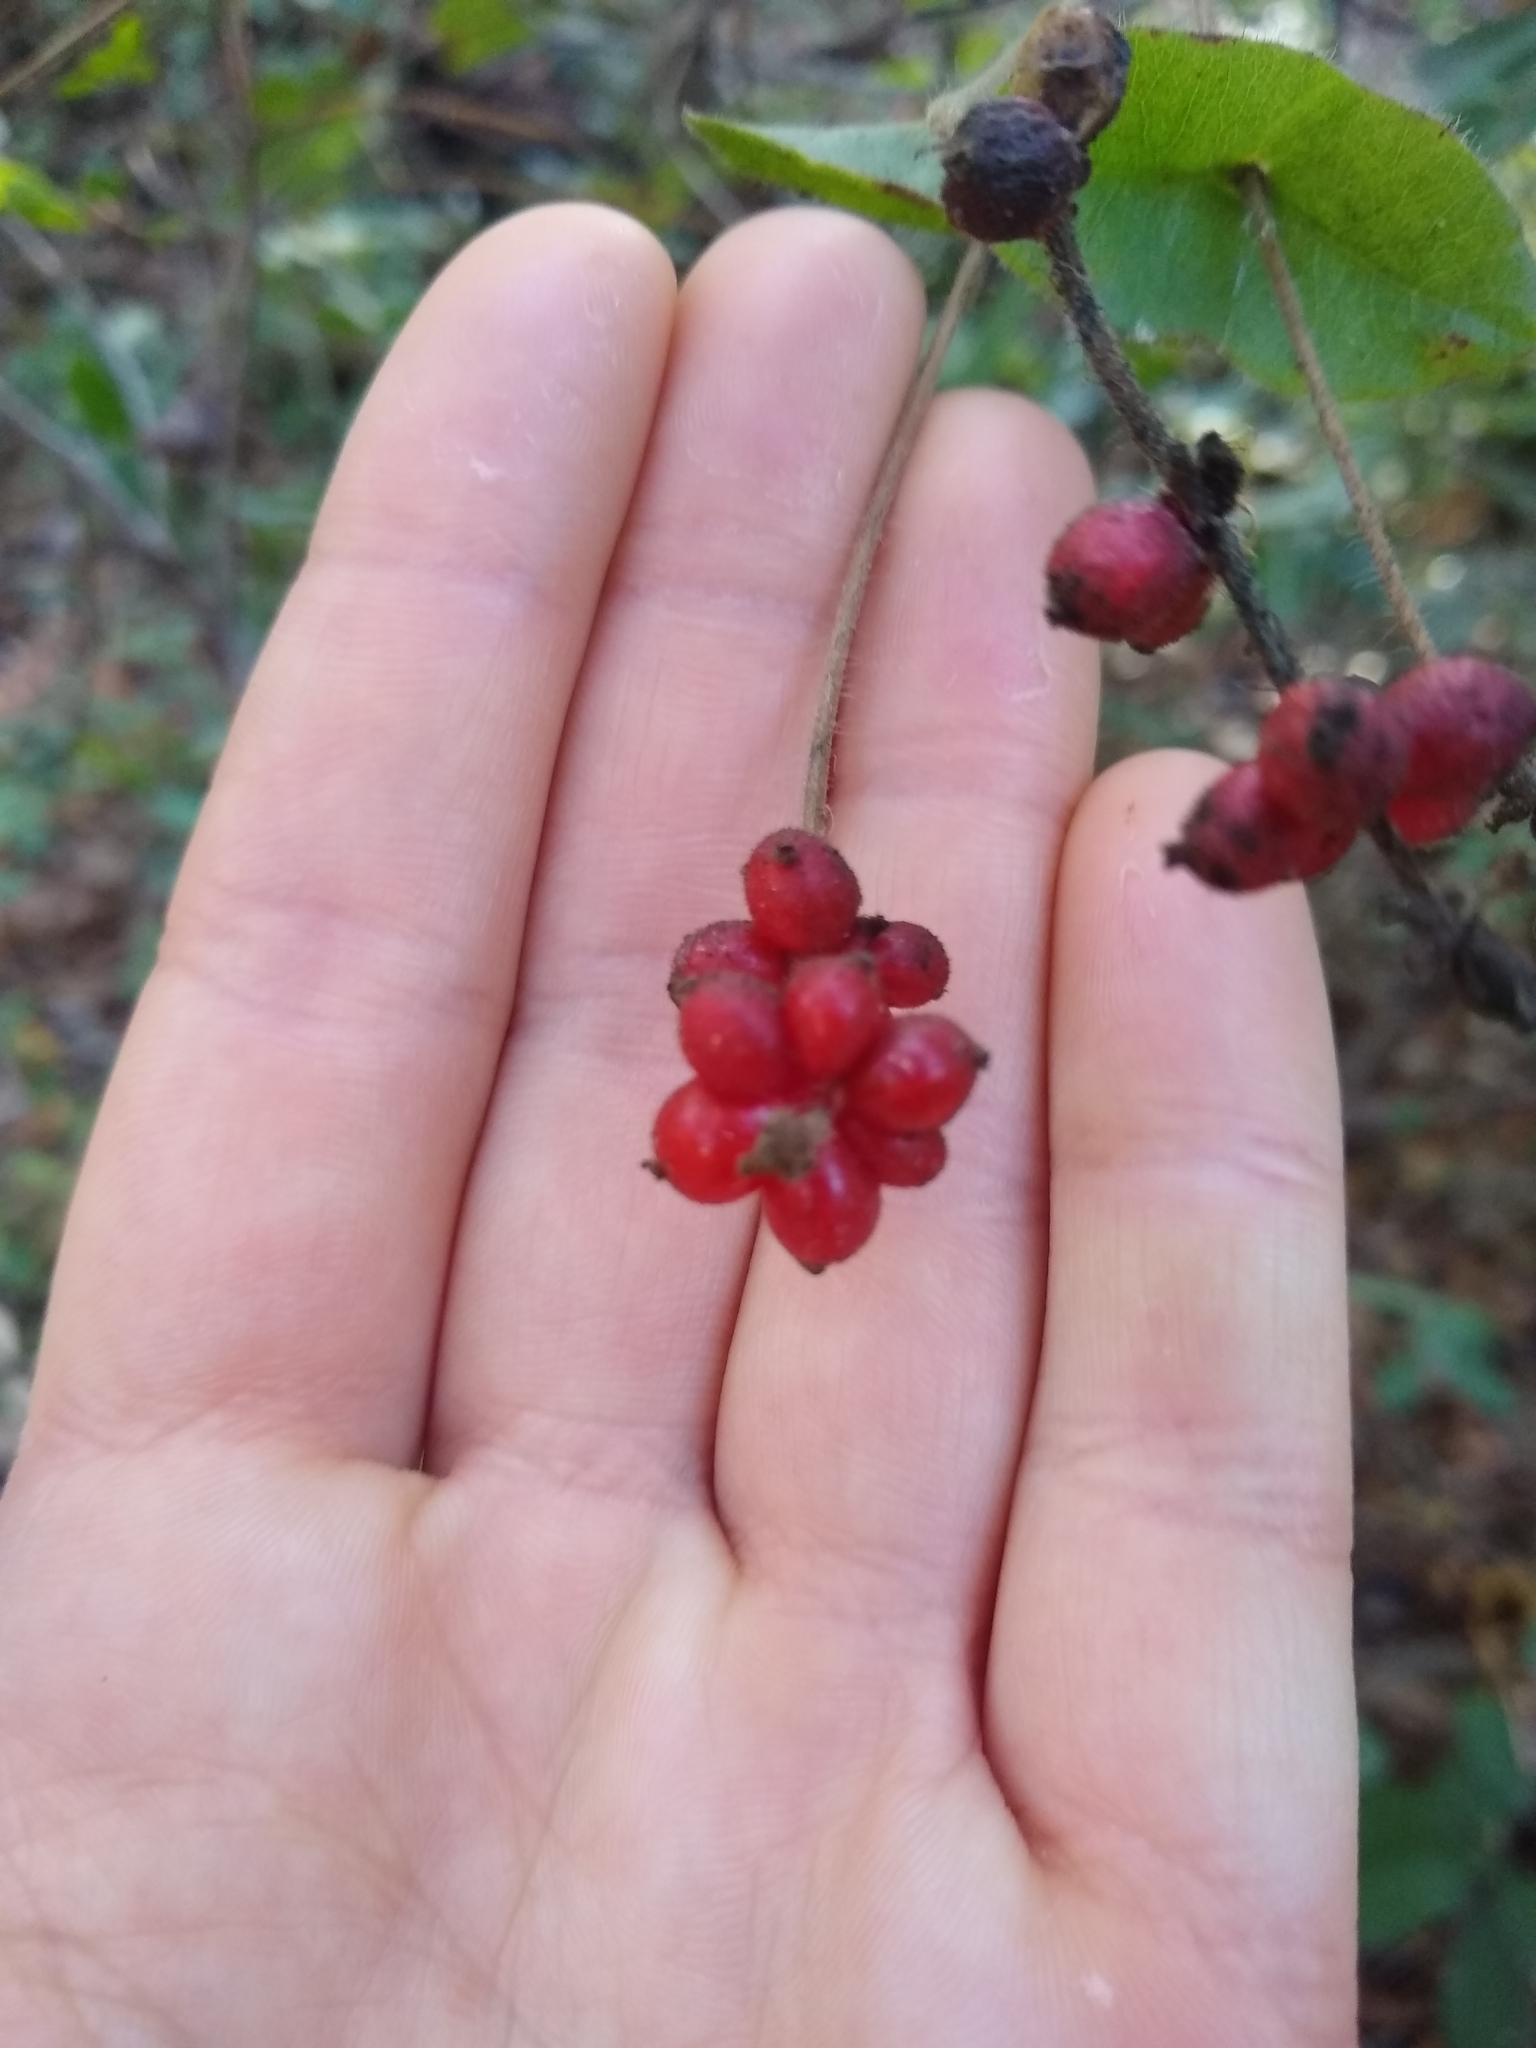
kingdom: Plantae
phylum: Tracheophyta
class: Magnoliopsida
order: Dipsacales
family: Caprifoliaceae
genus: Lonicera
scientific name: Lonicera hispidula
